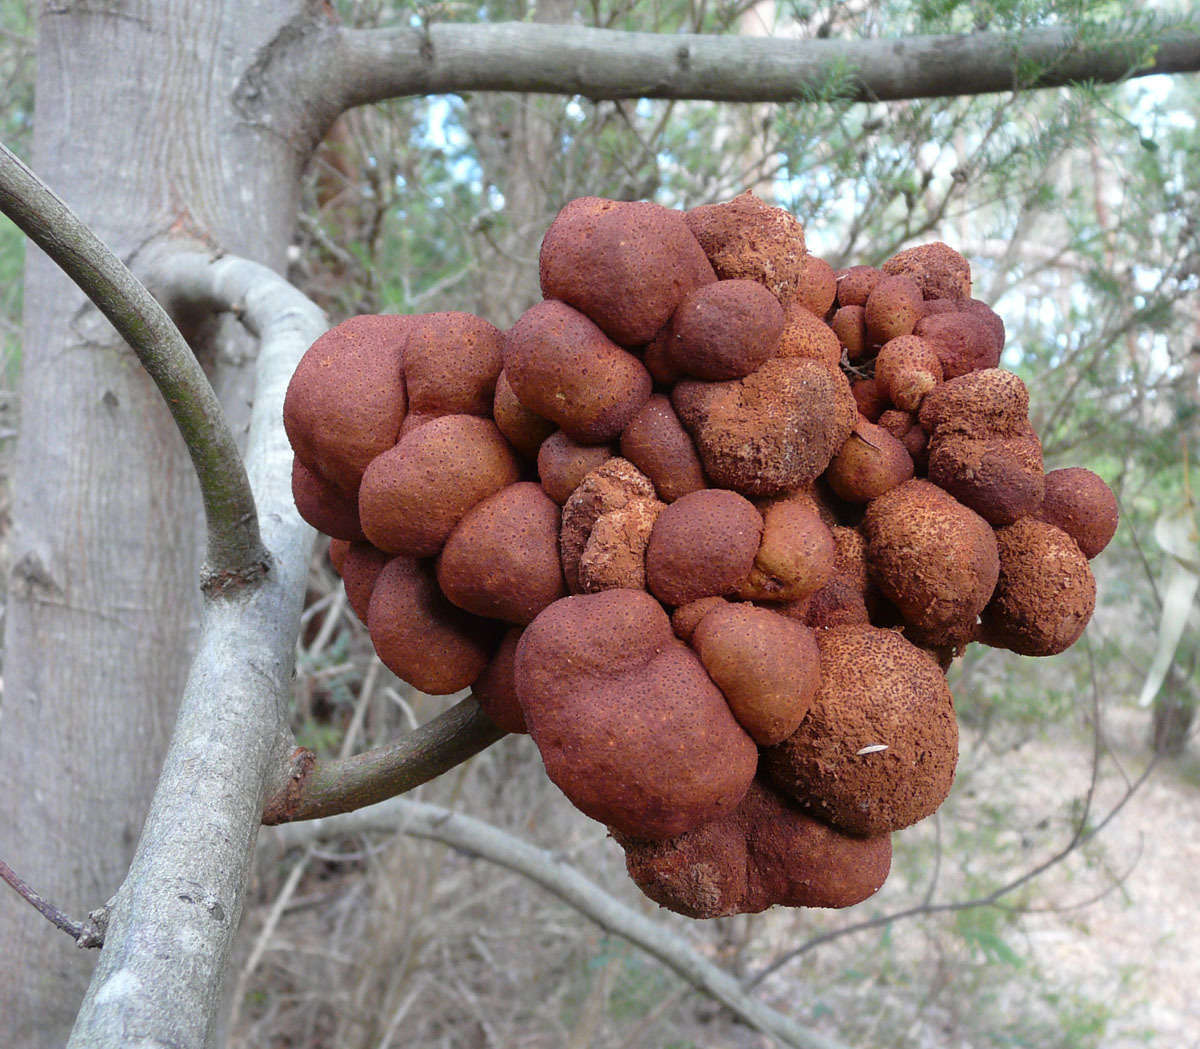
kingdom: Fungi
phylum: Basidiomycota
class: Pucciniomycetes
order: Pucciniales
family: Uromycladiaceae
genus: Uromycladium
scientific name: Uromycladium murphyi
